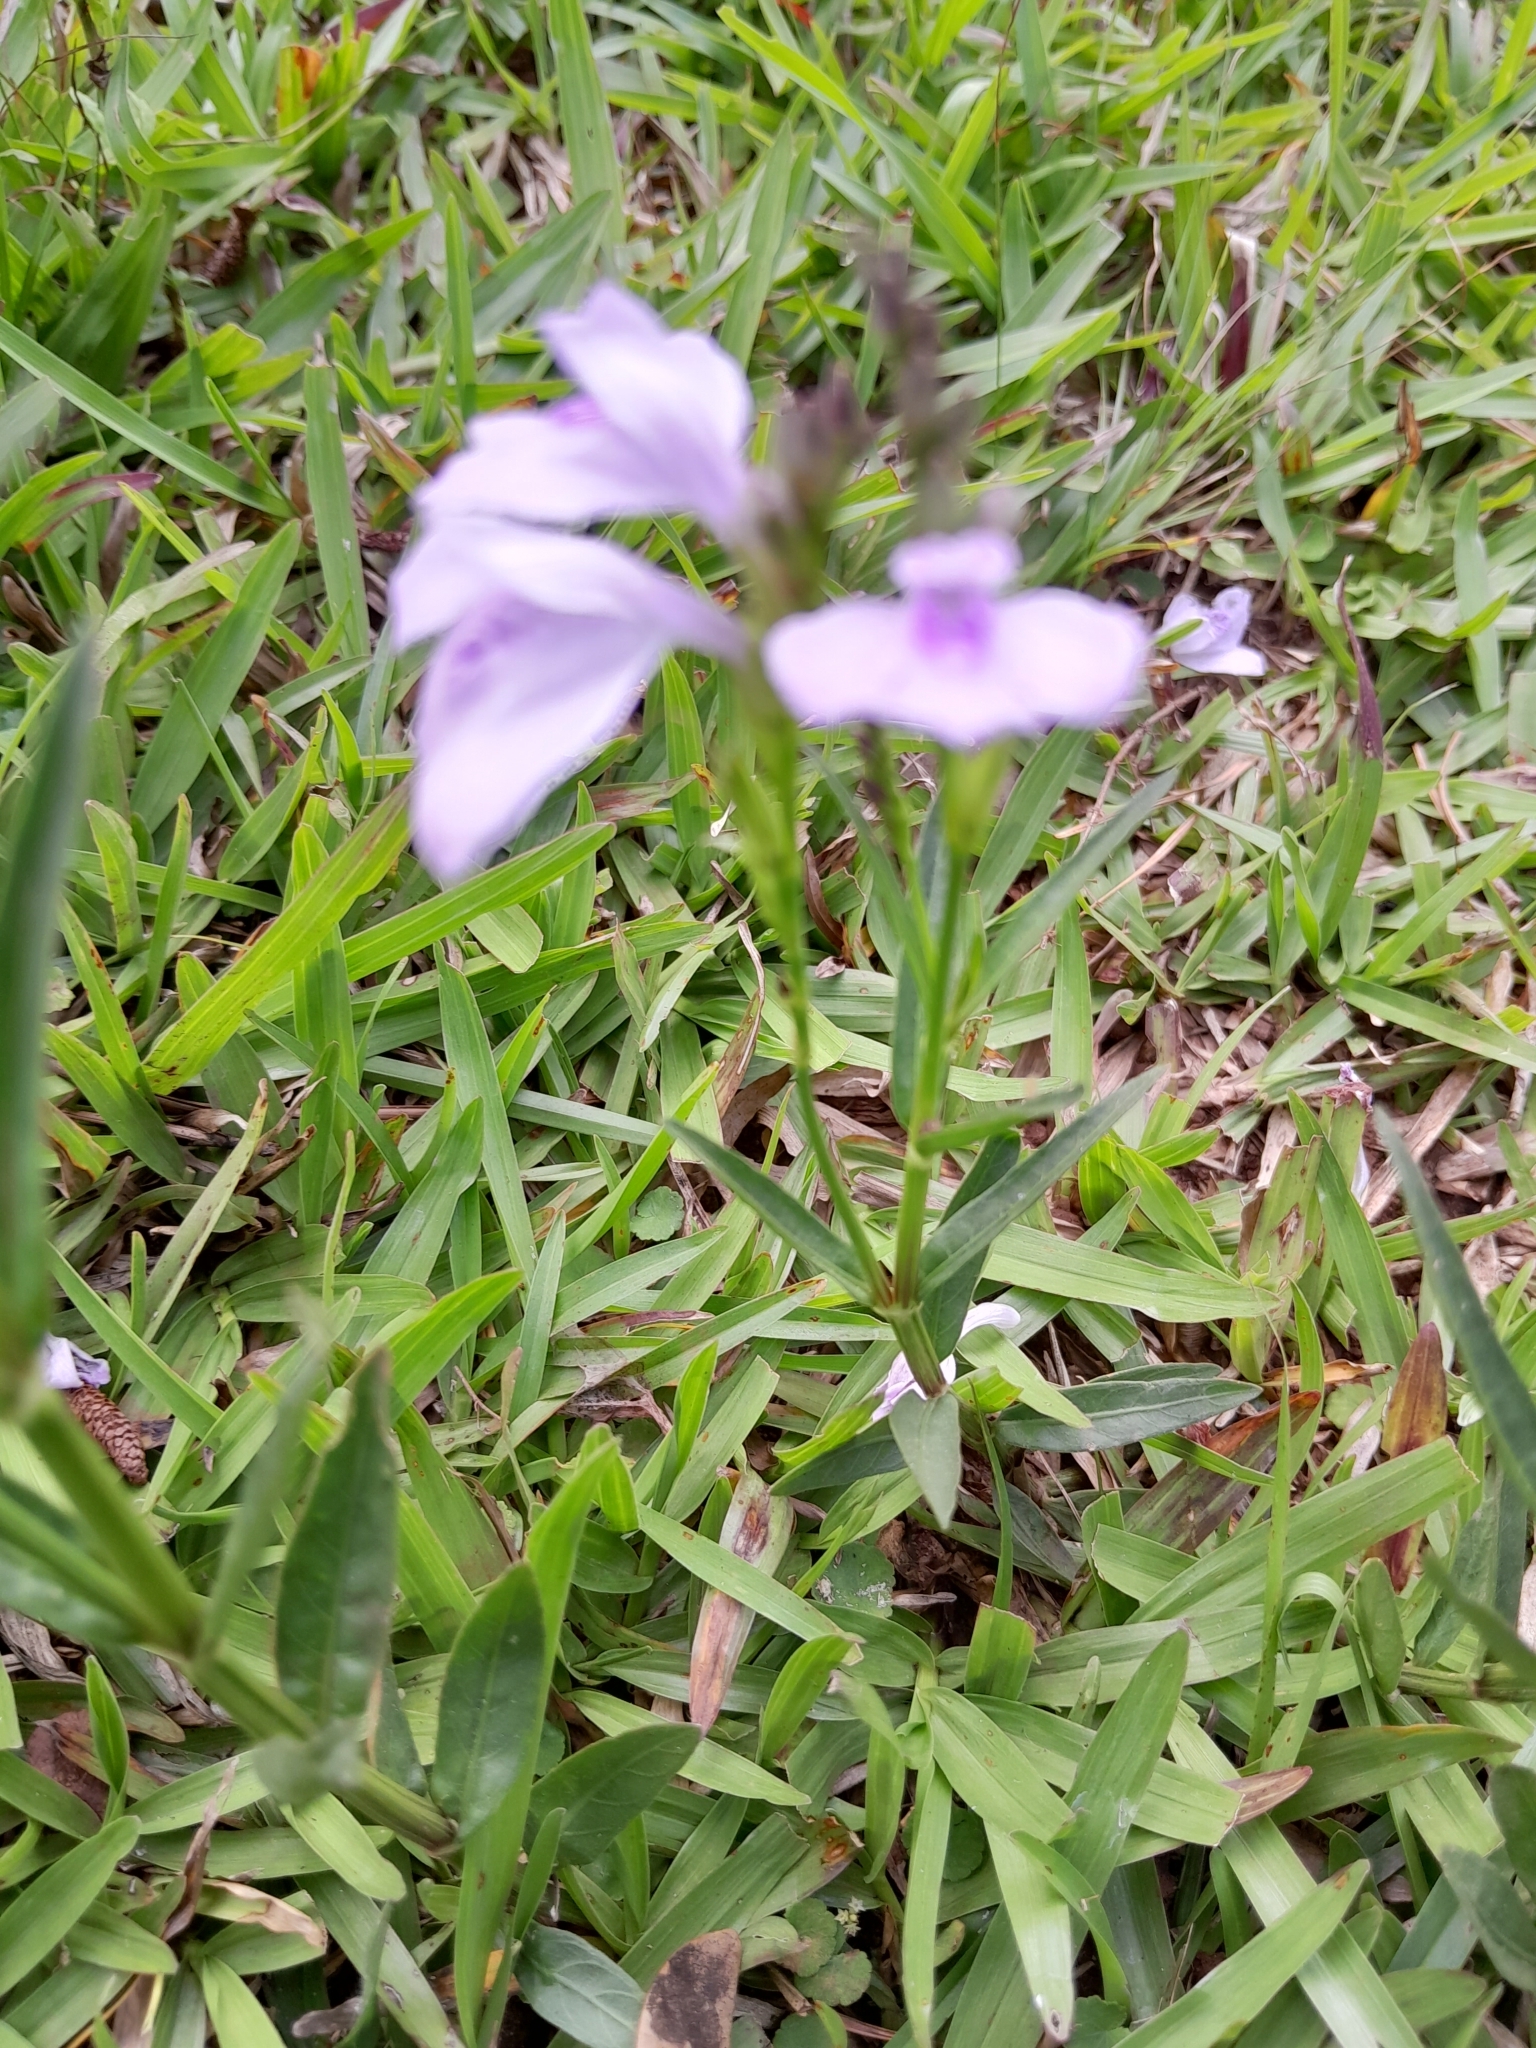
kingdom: Plantae
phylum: Tracheophyta
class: Magnoliopsida
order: Lamiales
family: Acanthaceae
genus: Dianthera
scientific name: Dianthera laevilinguis
